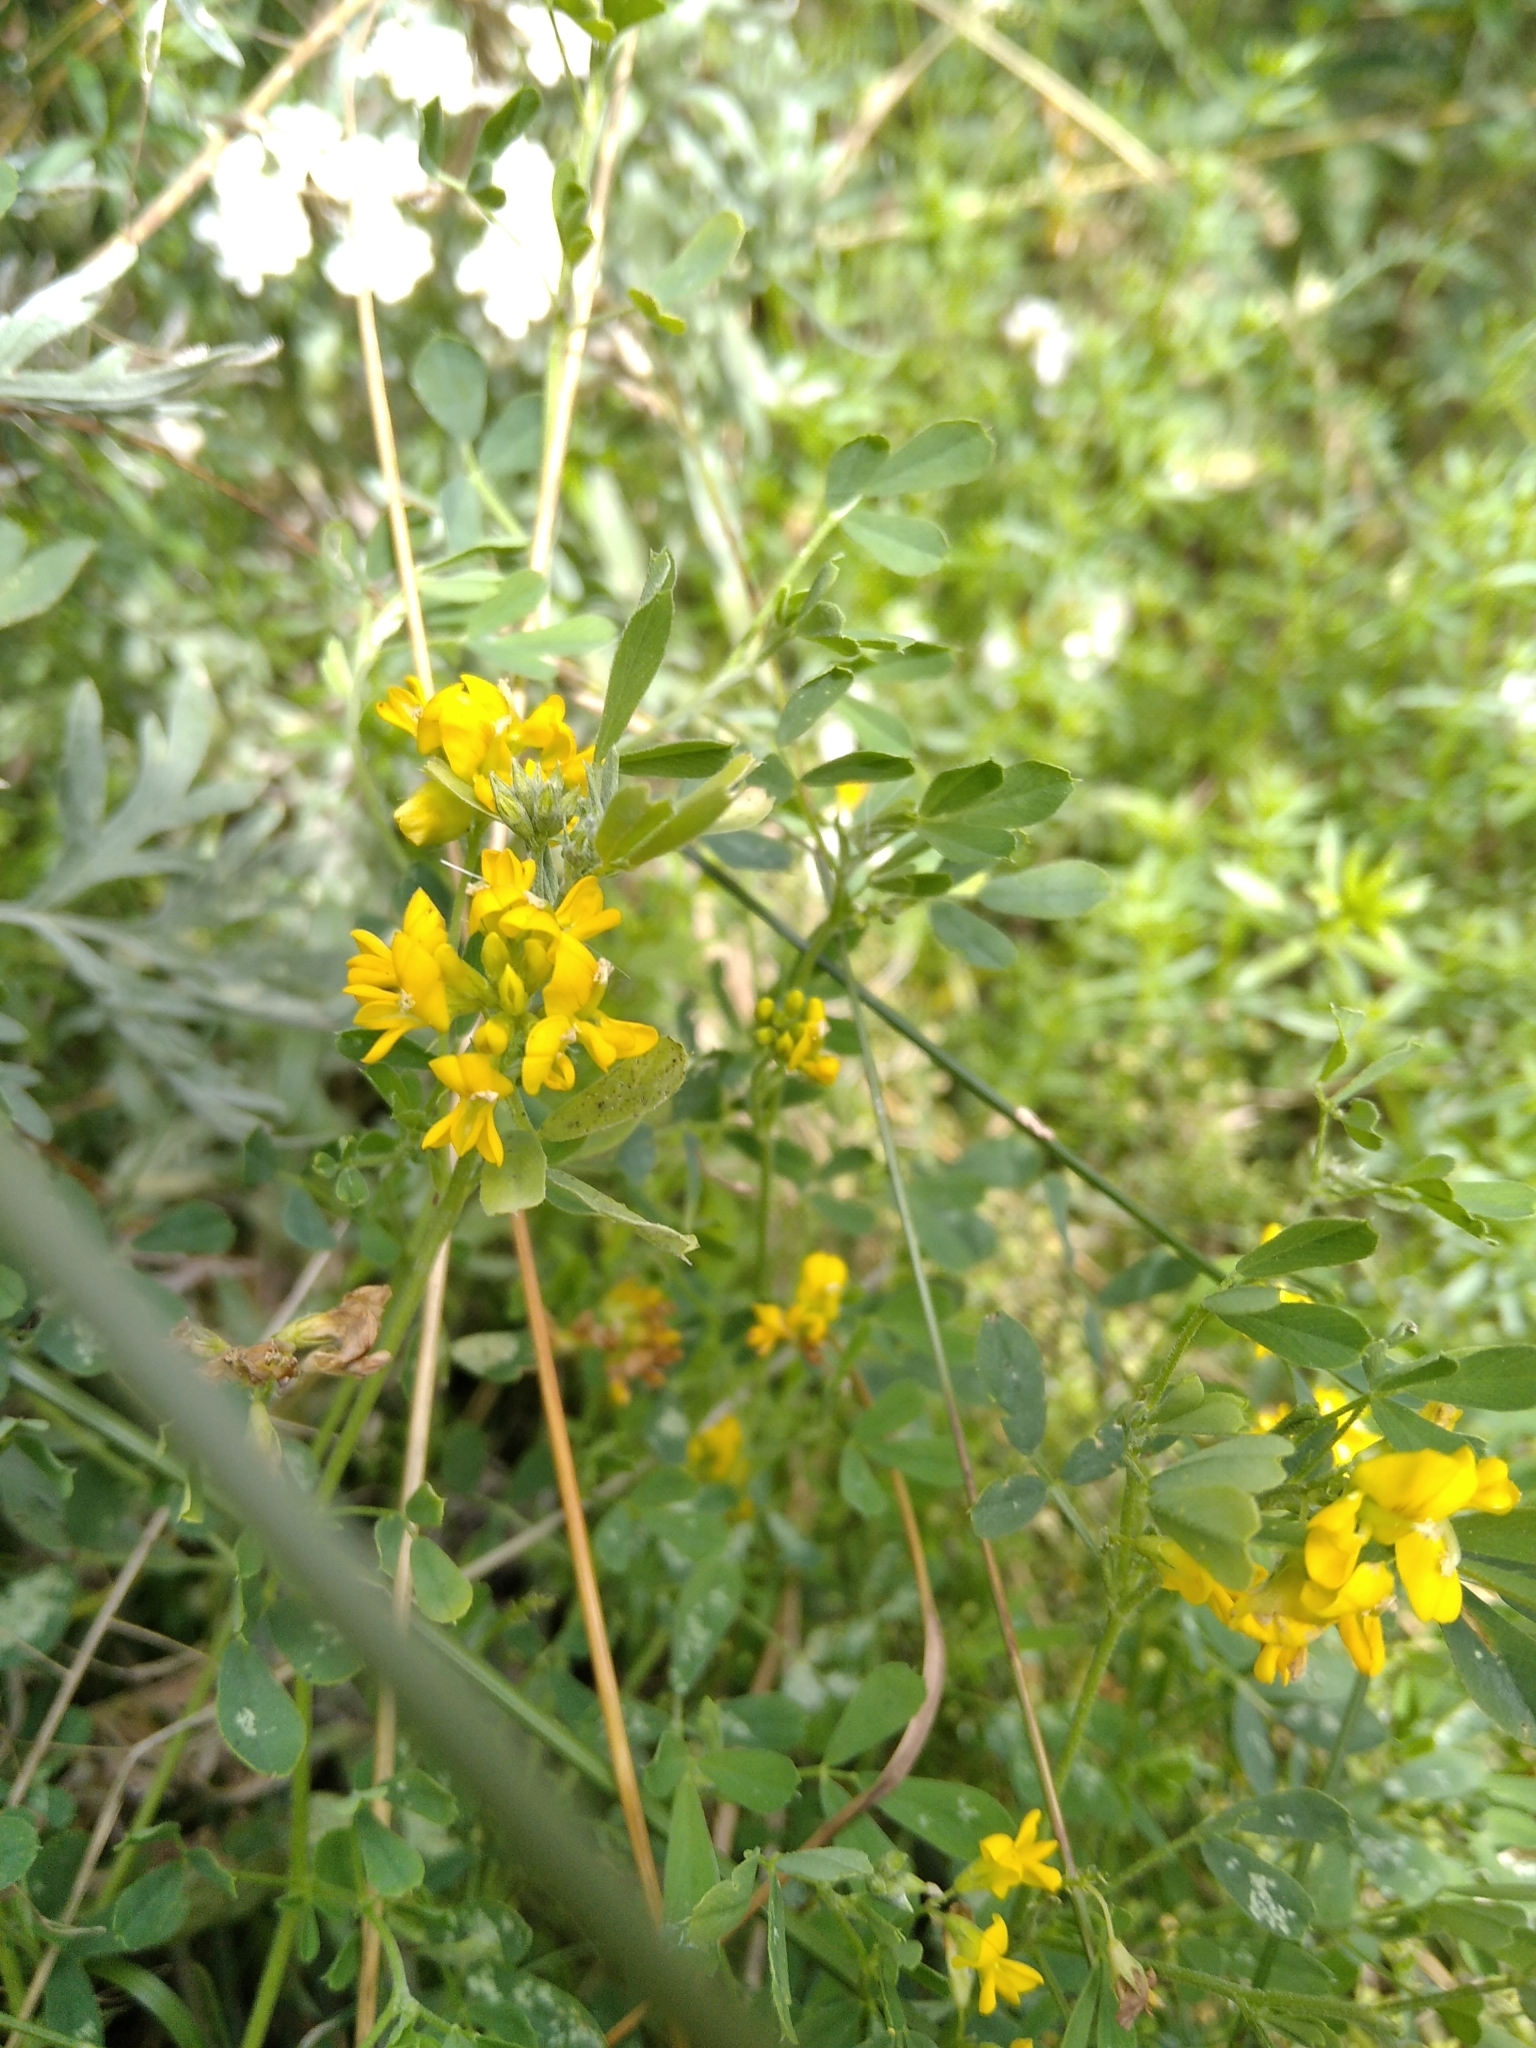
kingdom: Plantae
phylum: Tracheophyta
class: Magnoliopsida
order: Fabales
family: Fabaceae
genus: Medicago
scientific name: Medicago falcata
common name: Sickle medick
